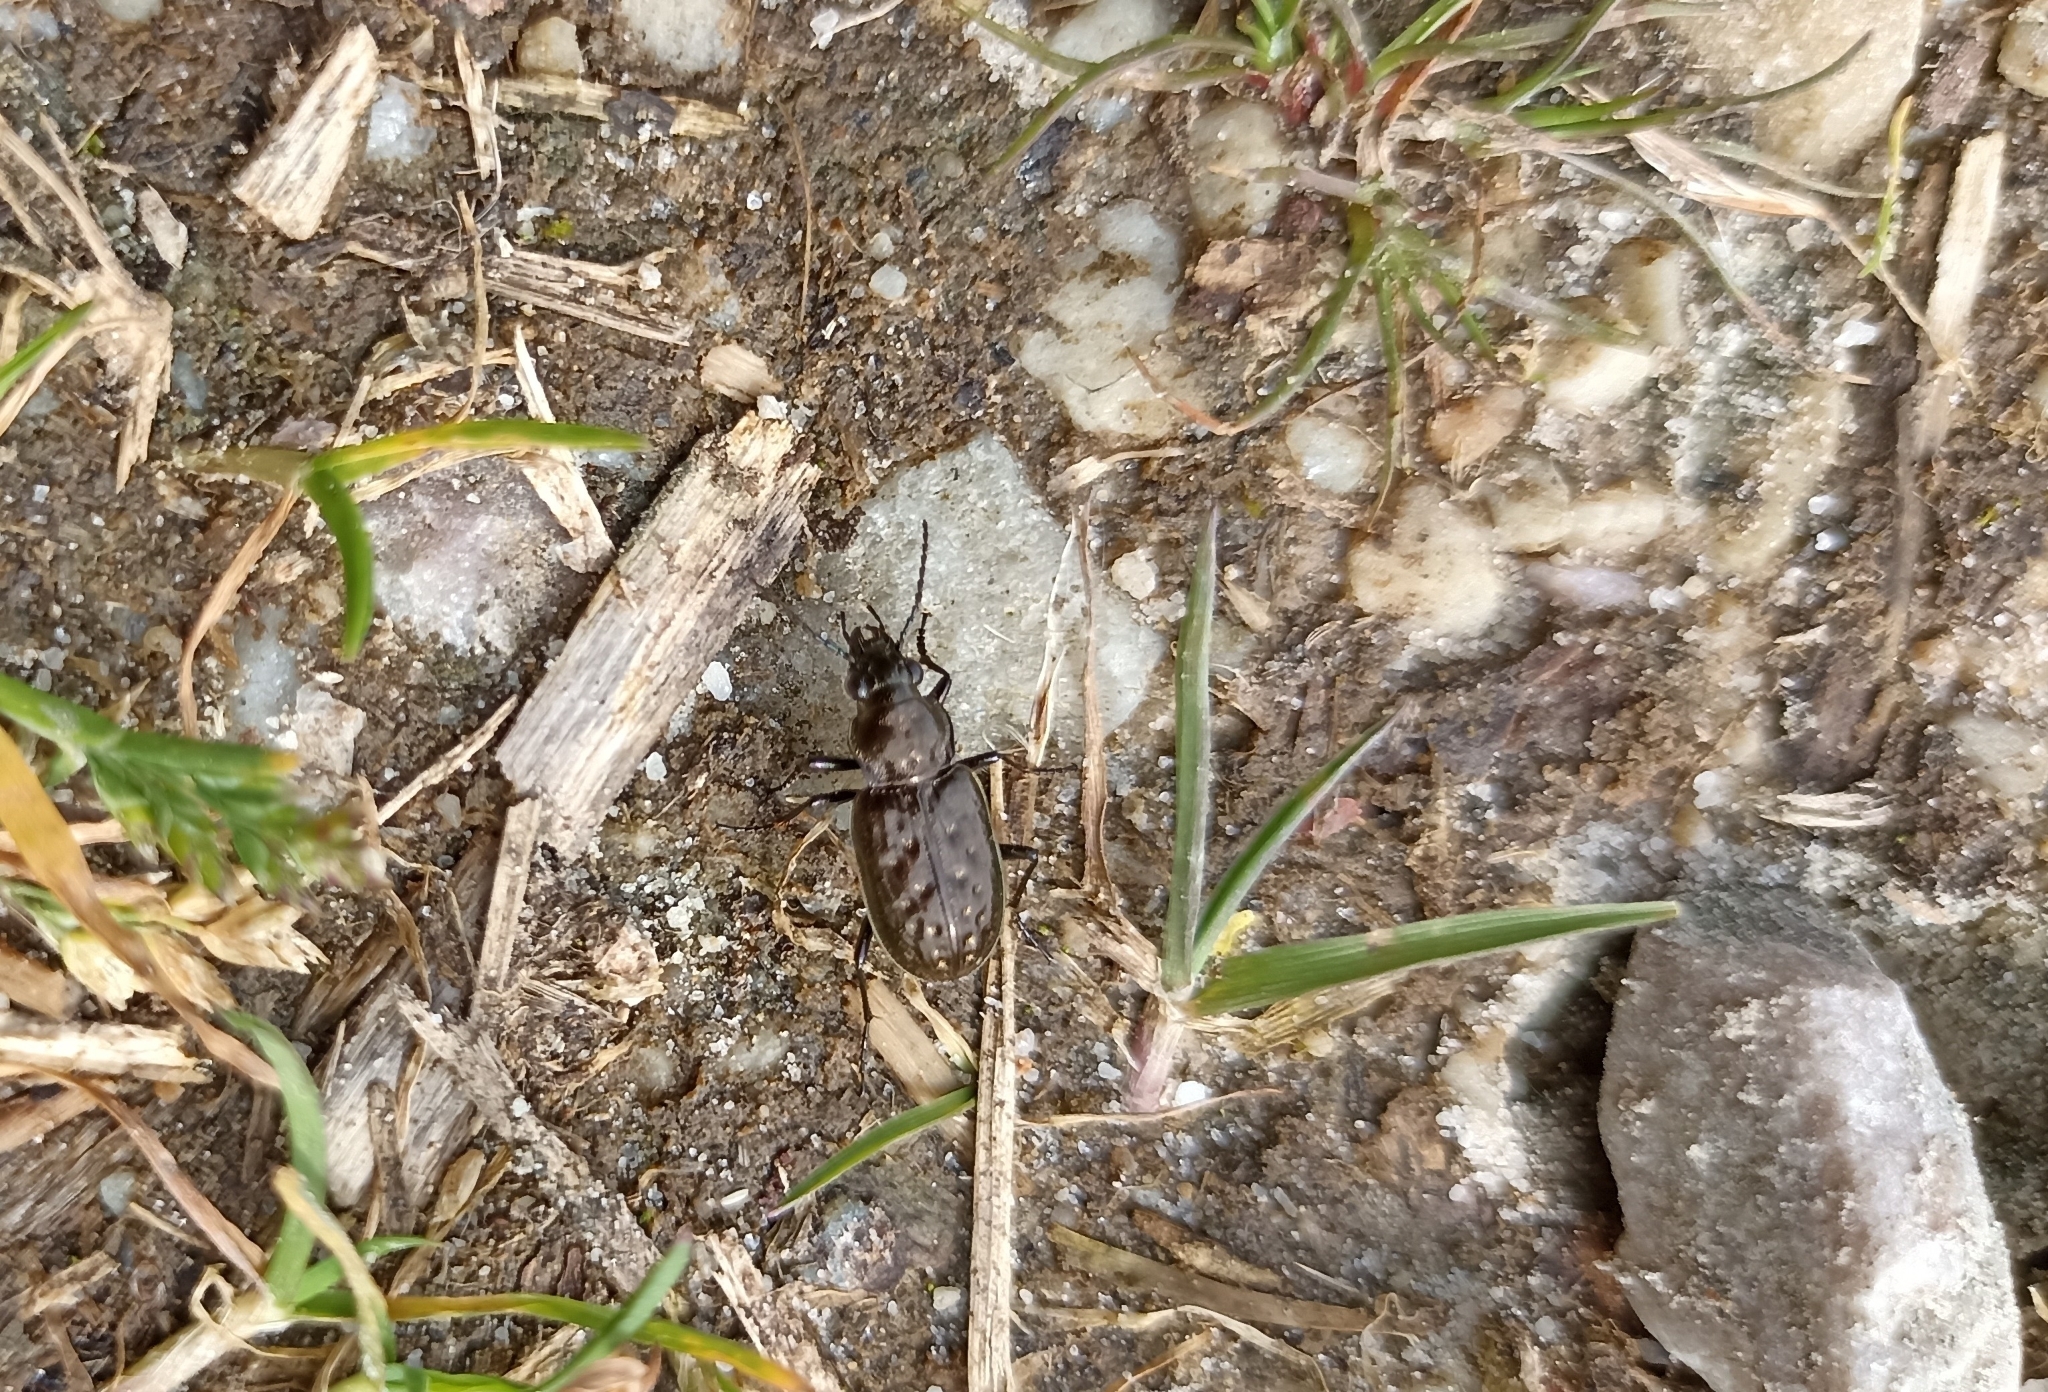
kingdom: Animalia
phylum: Arthropoda
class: Insecta
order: Coleoptera
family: Carabidae
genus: Blethisa
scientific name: Blethisa multipunctata
